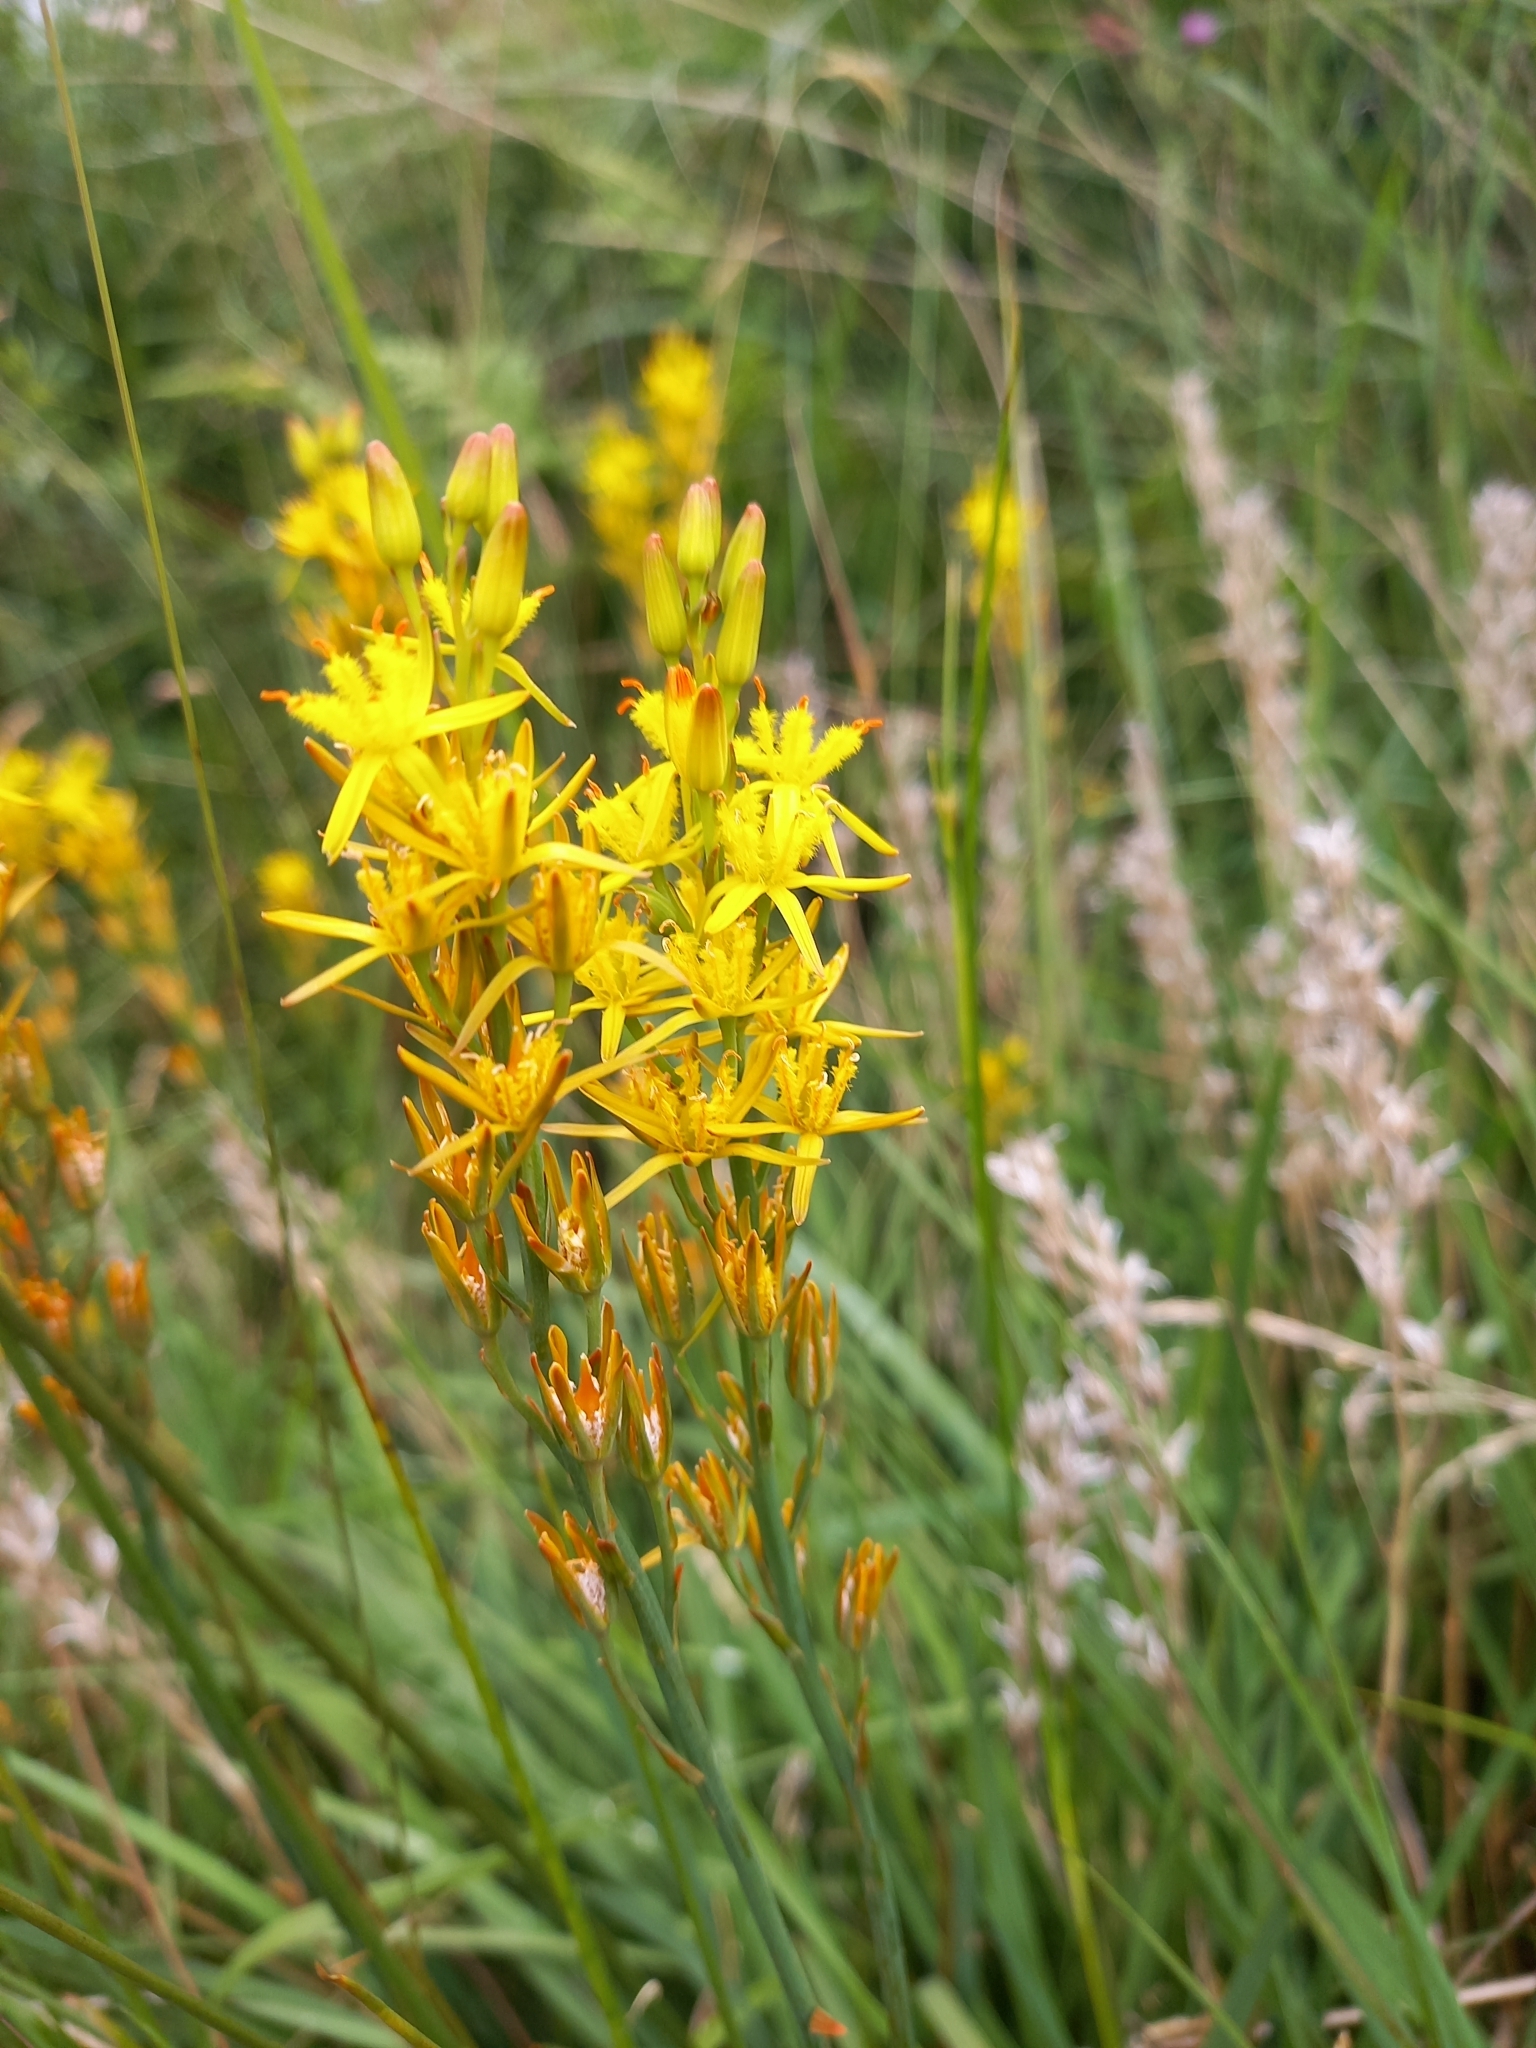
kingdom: Plantae
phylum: Tracheophyta
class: Liliopsida
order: Dioscoreales
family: Nartheciaceae
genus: Narthecium
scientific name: Narthecium ossifragum
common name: Bog asphodel
